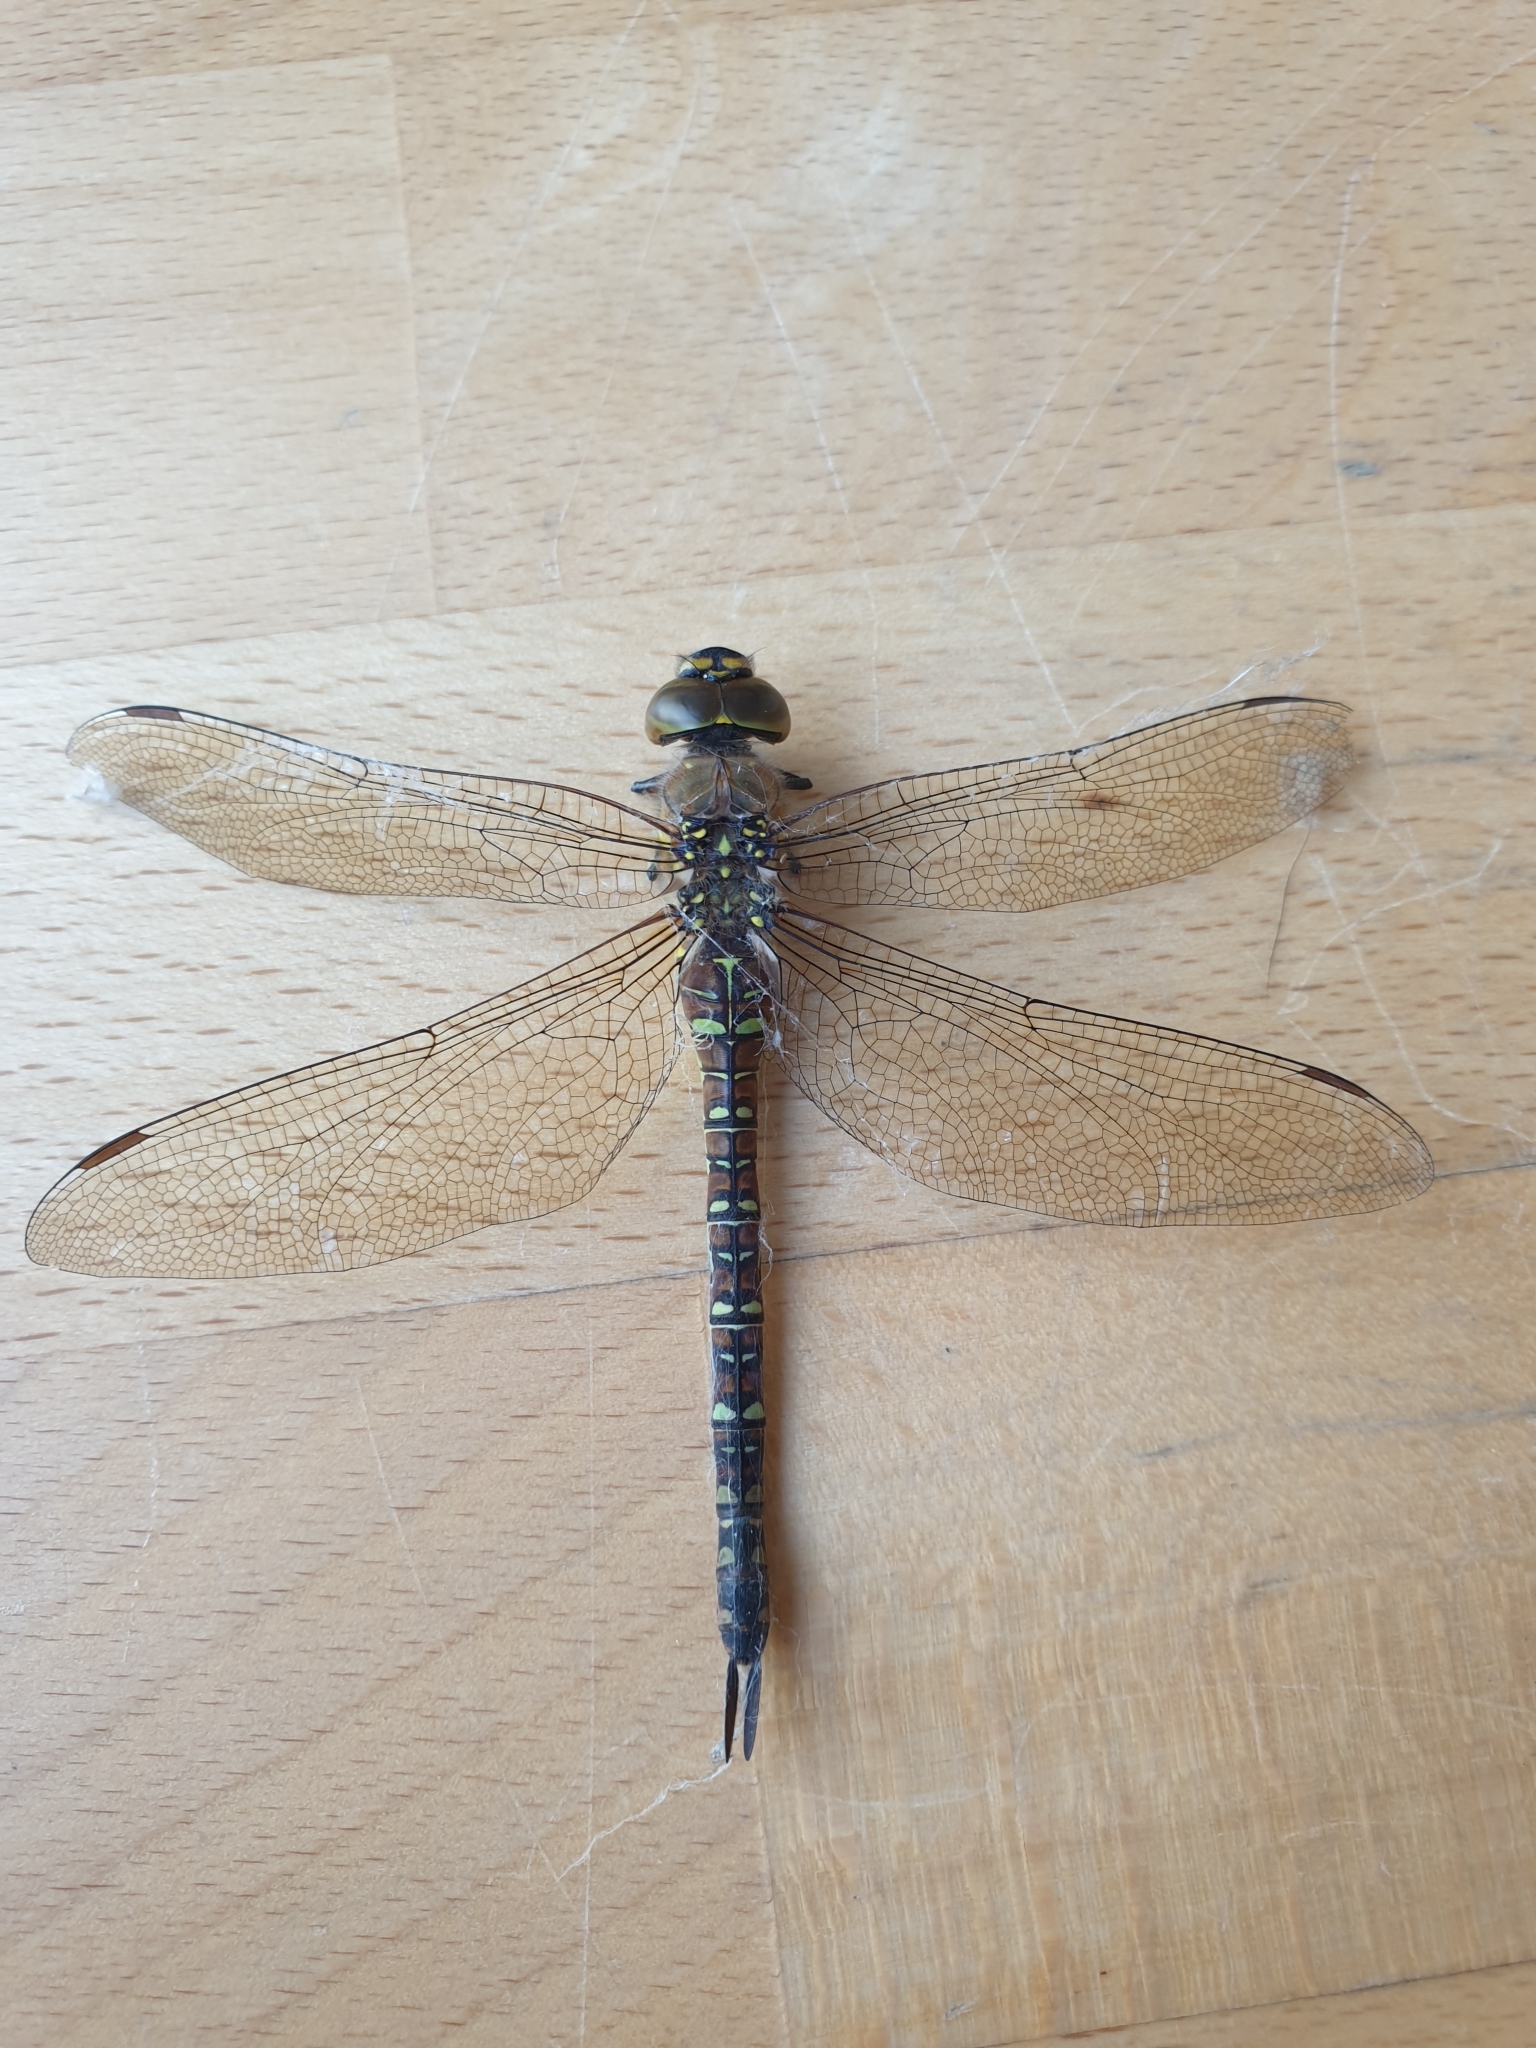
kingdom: Animalia
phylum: Arthropoda
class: Insecta
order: Odonata
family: Aeshnidae
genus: Aeshna
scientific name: Aeshna mixta
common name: Migrant hawker
